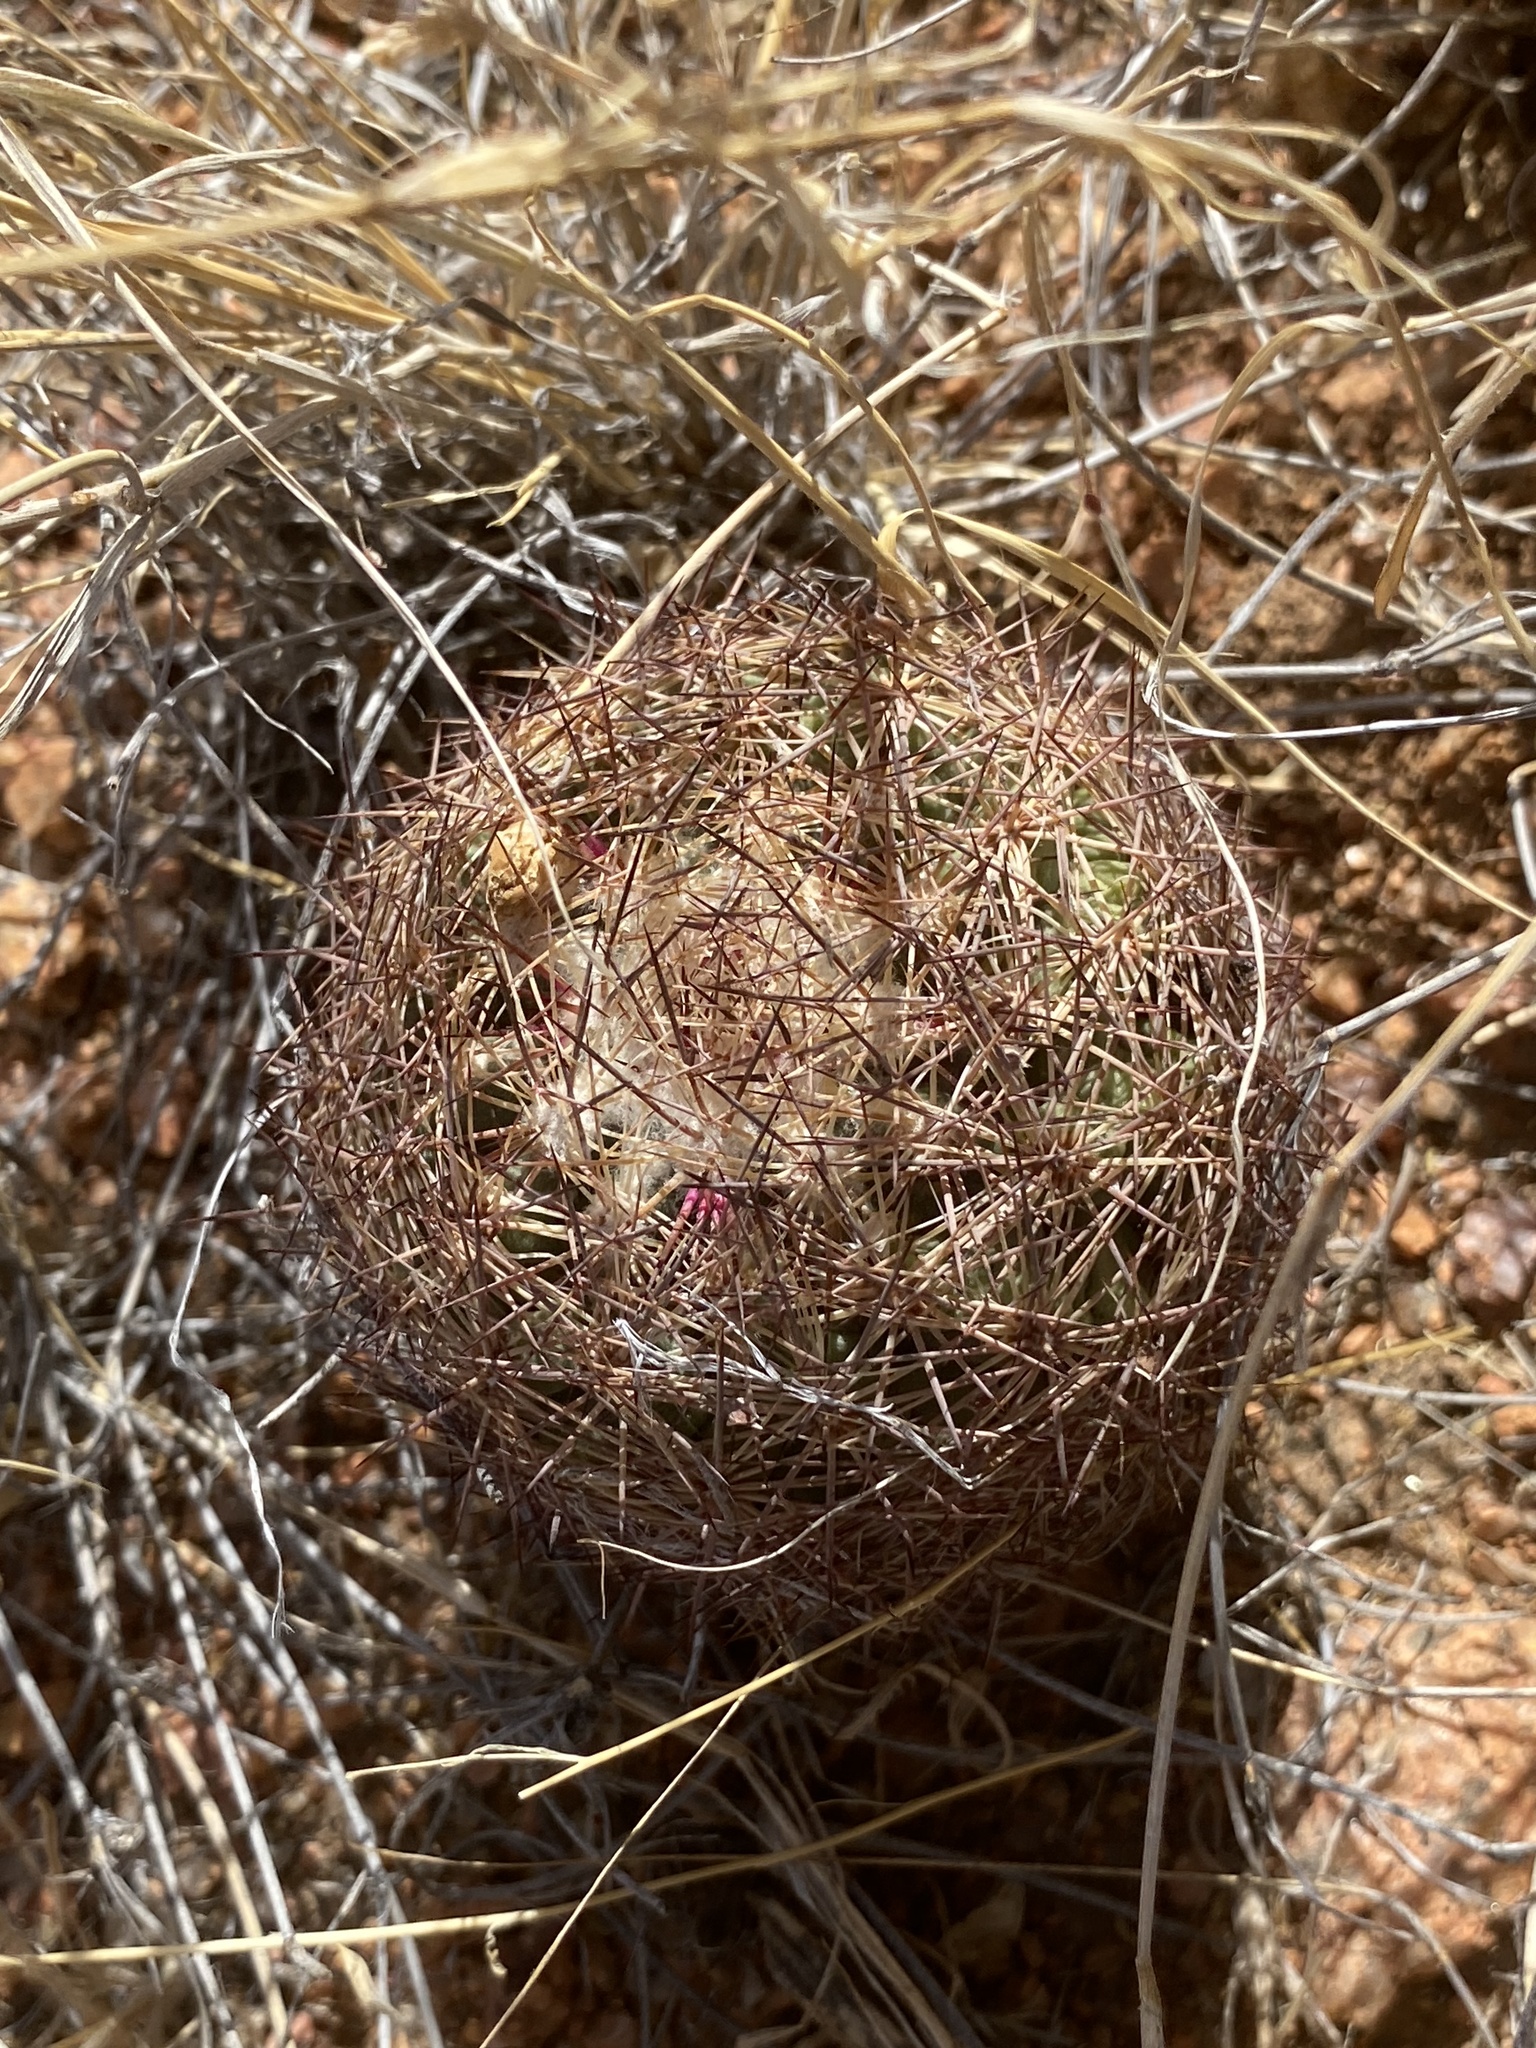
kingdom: Plantae
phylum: Tracheophyta
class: Magnoliopsida
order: Caryophyllales
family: Cactaceae
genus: Sclerocactus
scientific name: Sclerocactus intertextus
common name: White fish-hook cactus
